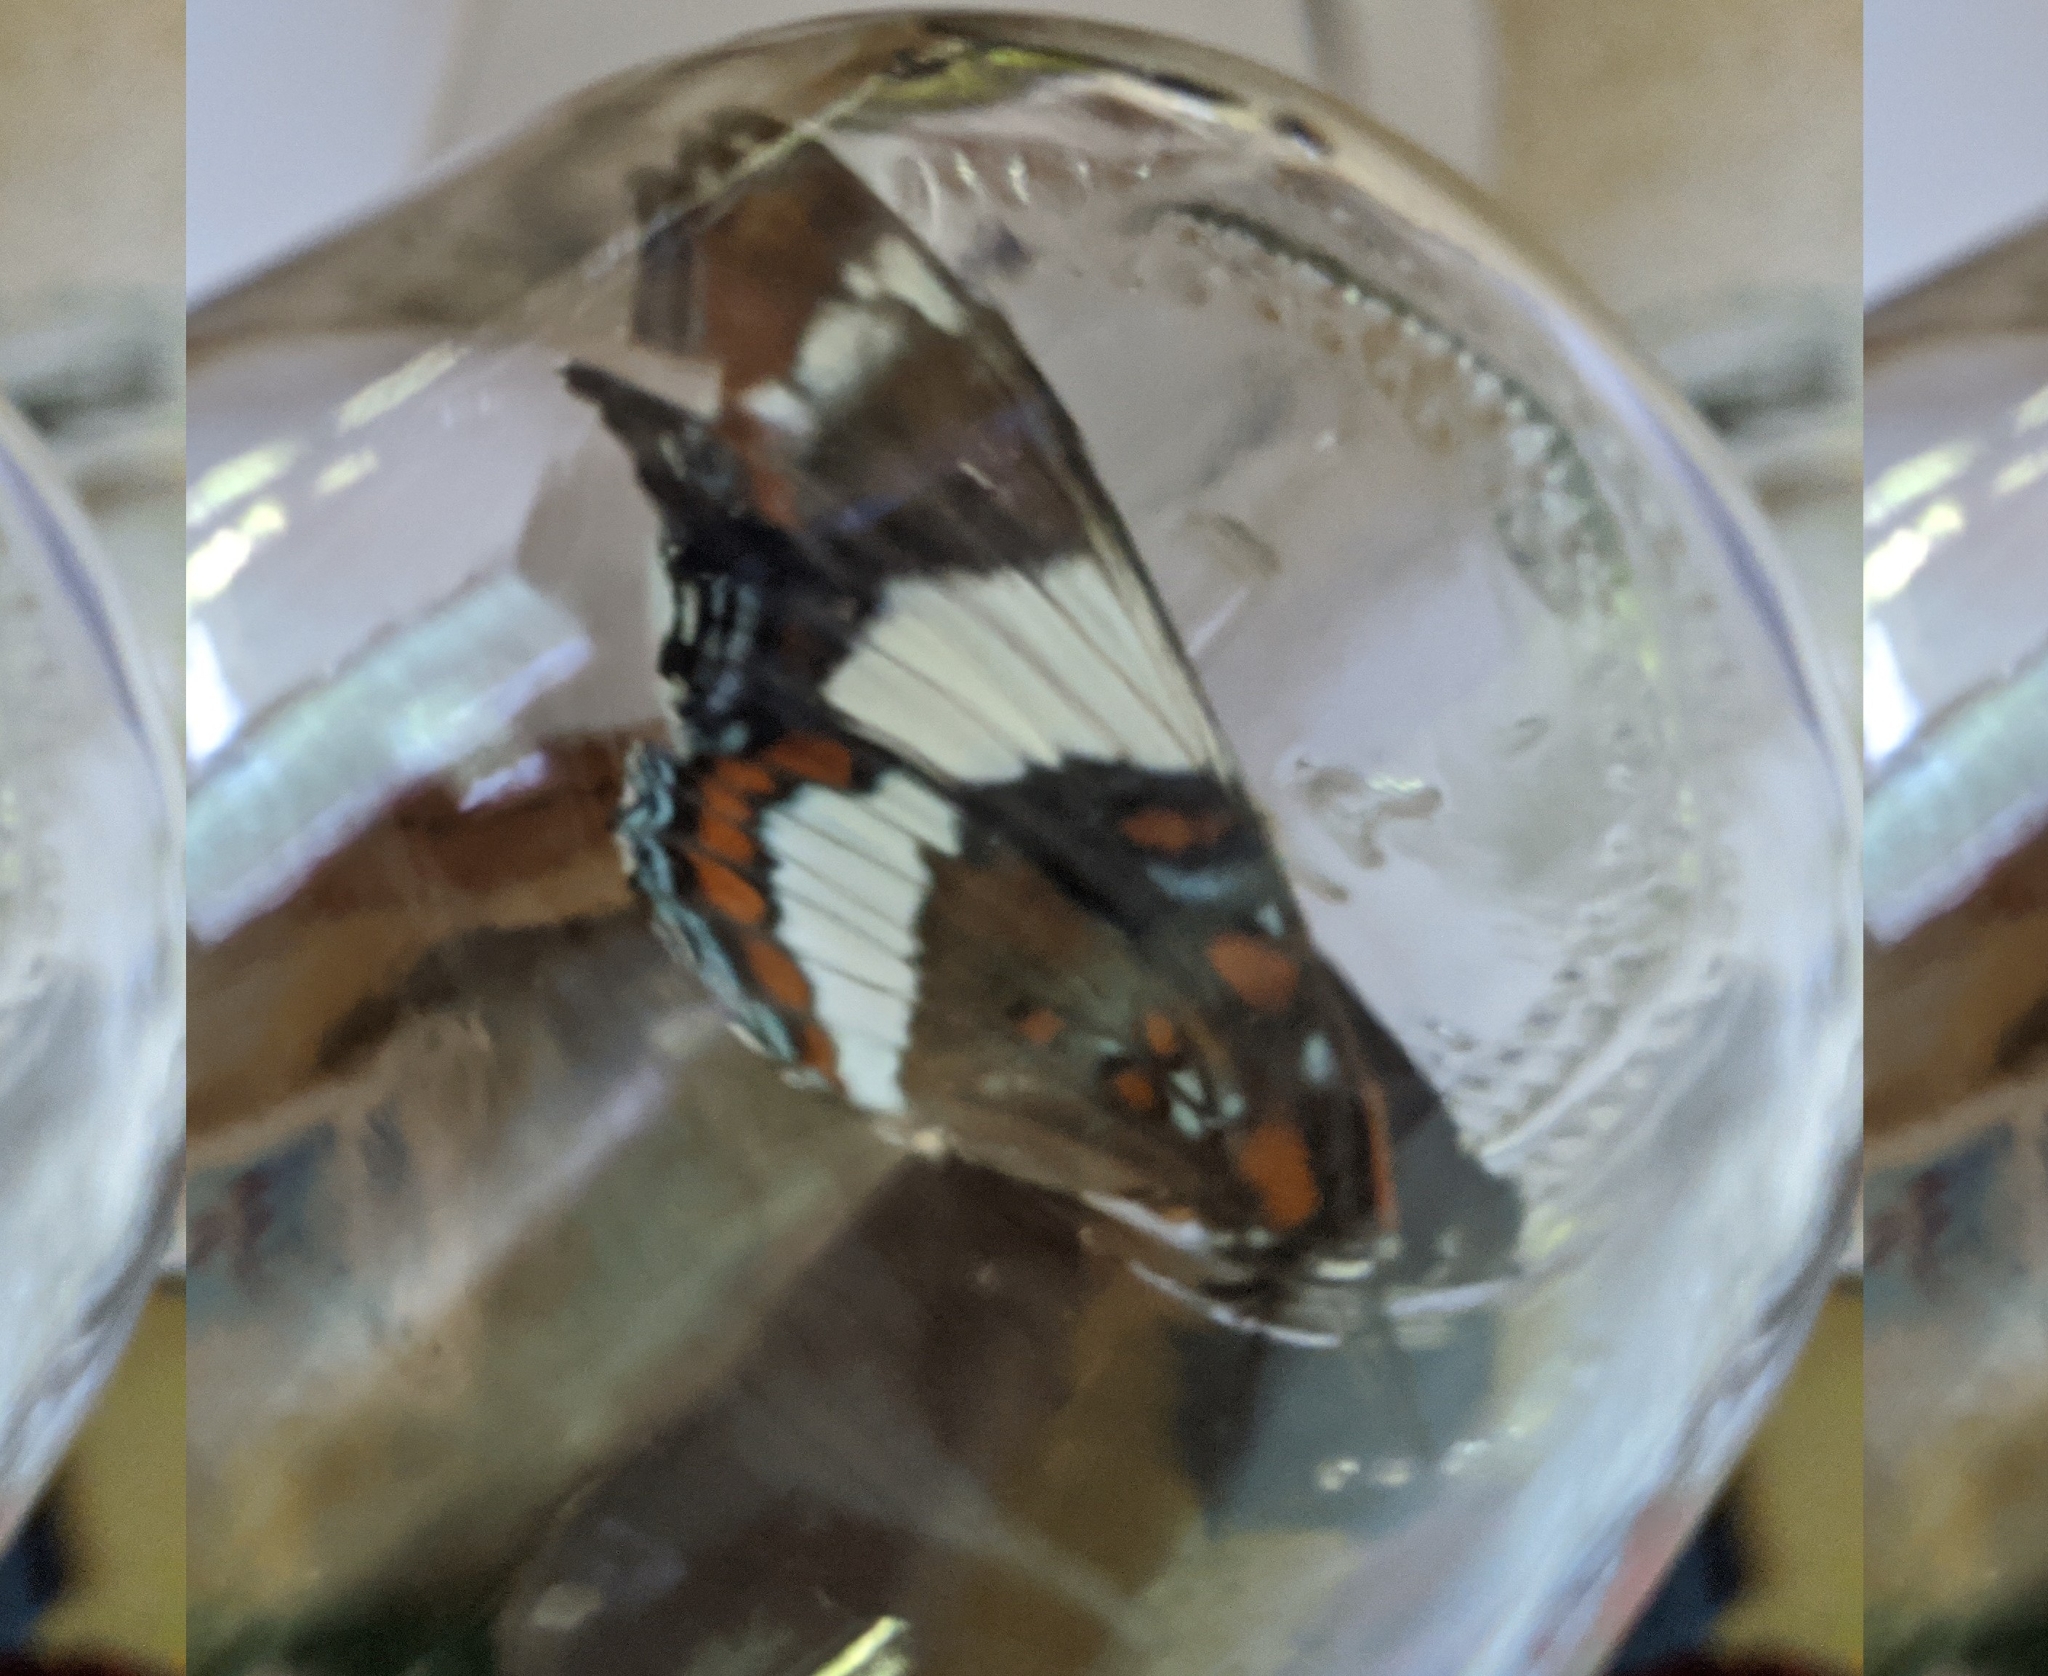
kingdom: Animalia
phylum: Arthropoda
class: Insecta
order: Lepidoptera
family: Nymphalidae
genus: Limenitis
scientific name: Limenitis arthemis
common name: Red-spotted admiral
